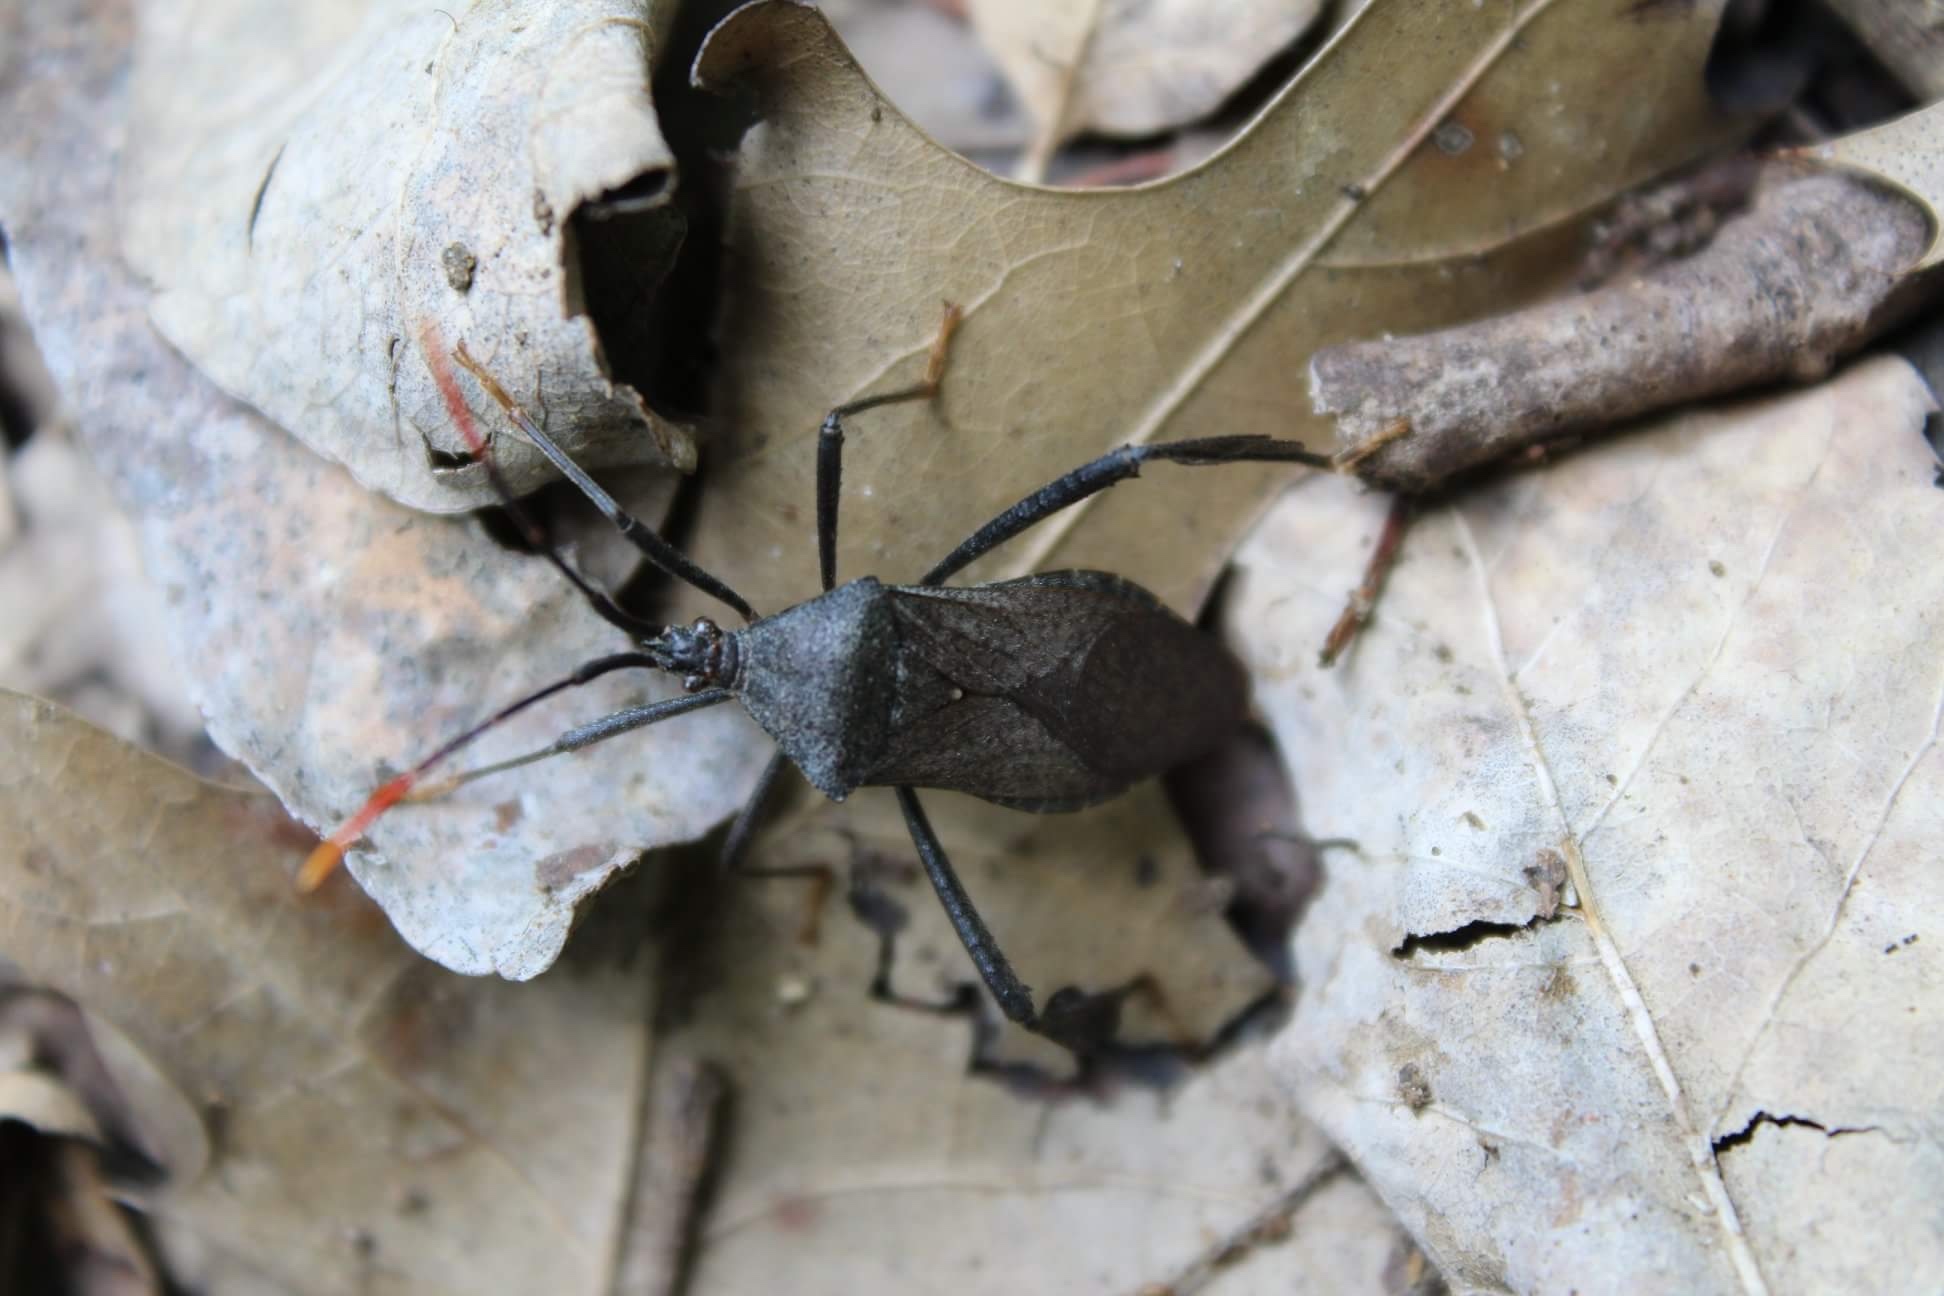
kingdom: Animalia
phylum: Arthropoda
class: Insecta
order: Hemiptera
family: Coreidae
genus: Acanthocephala
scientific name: Acanthocephala terminalis
